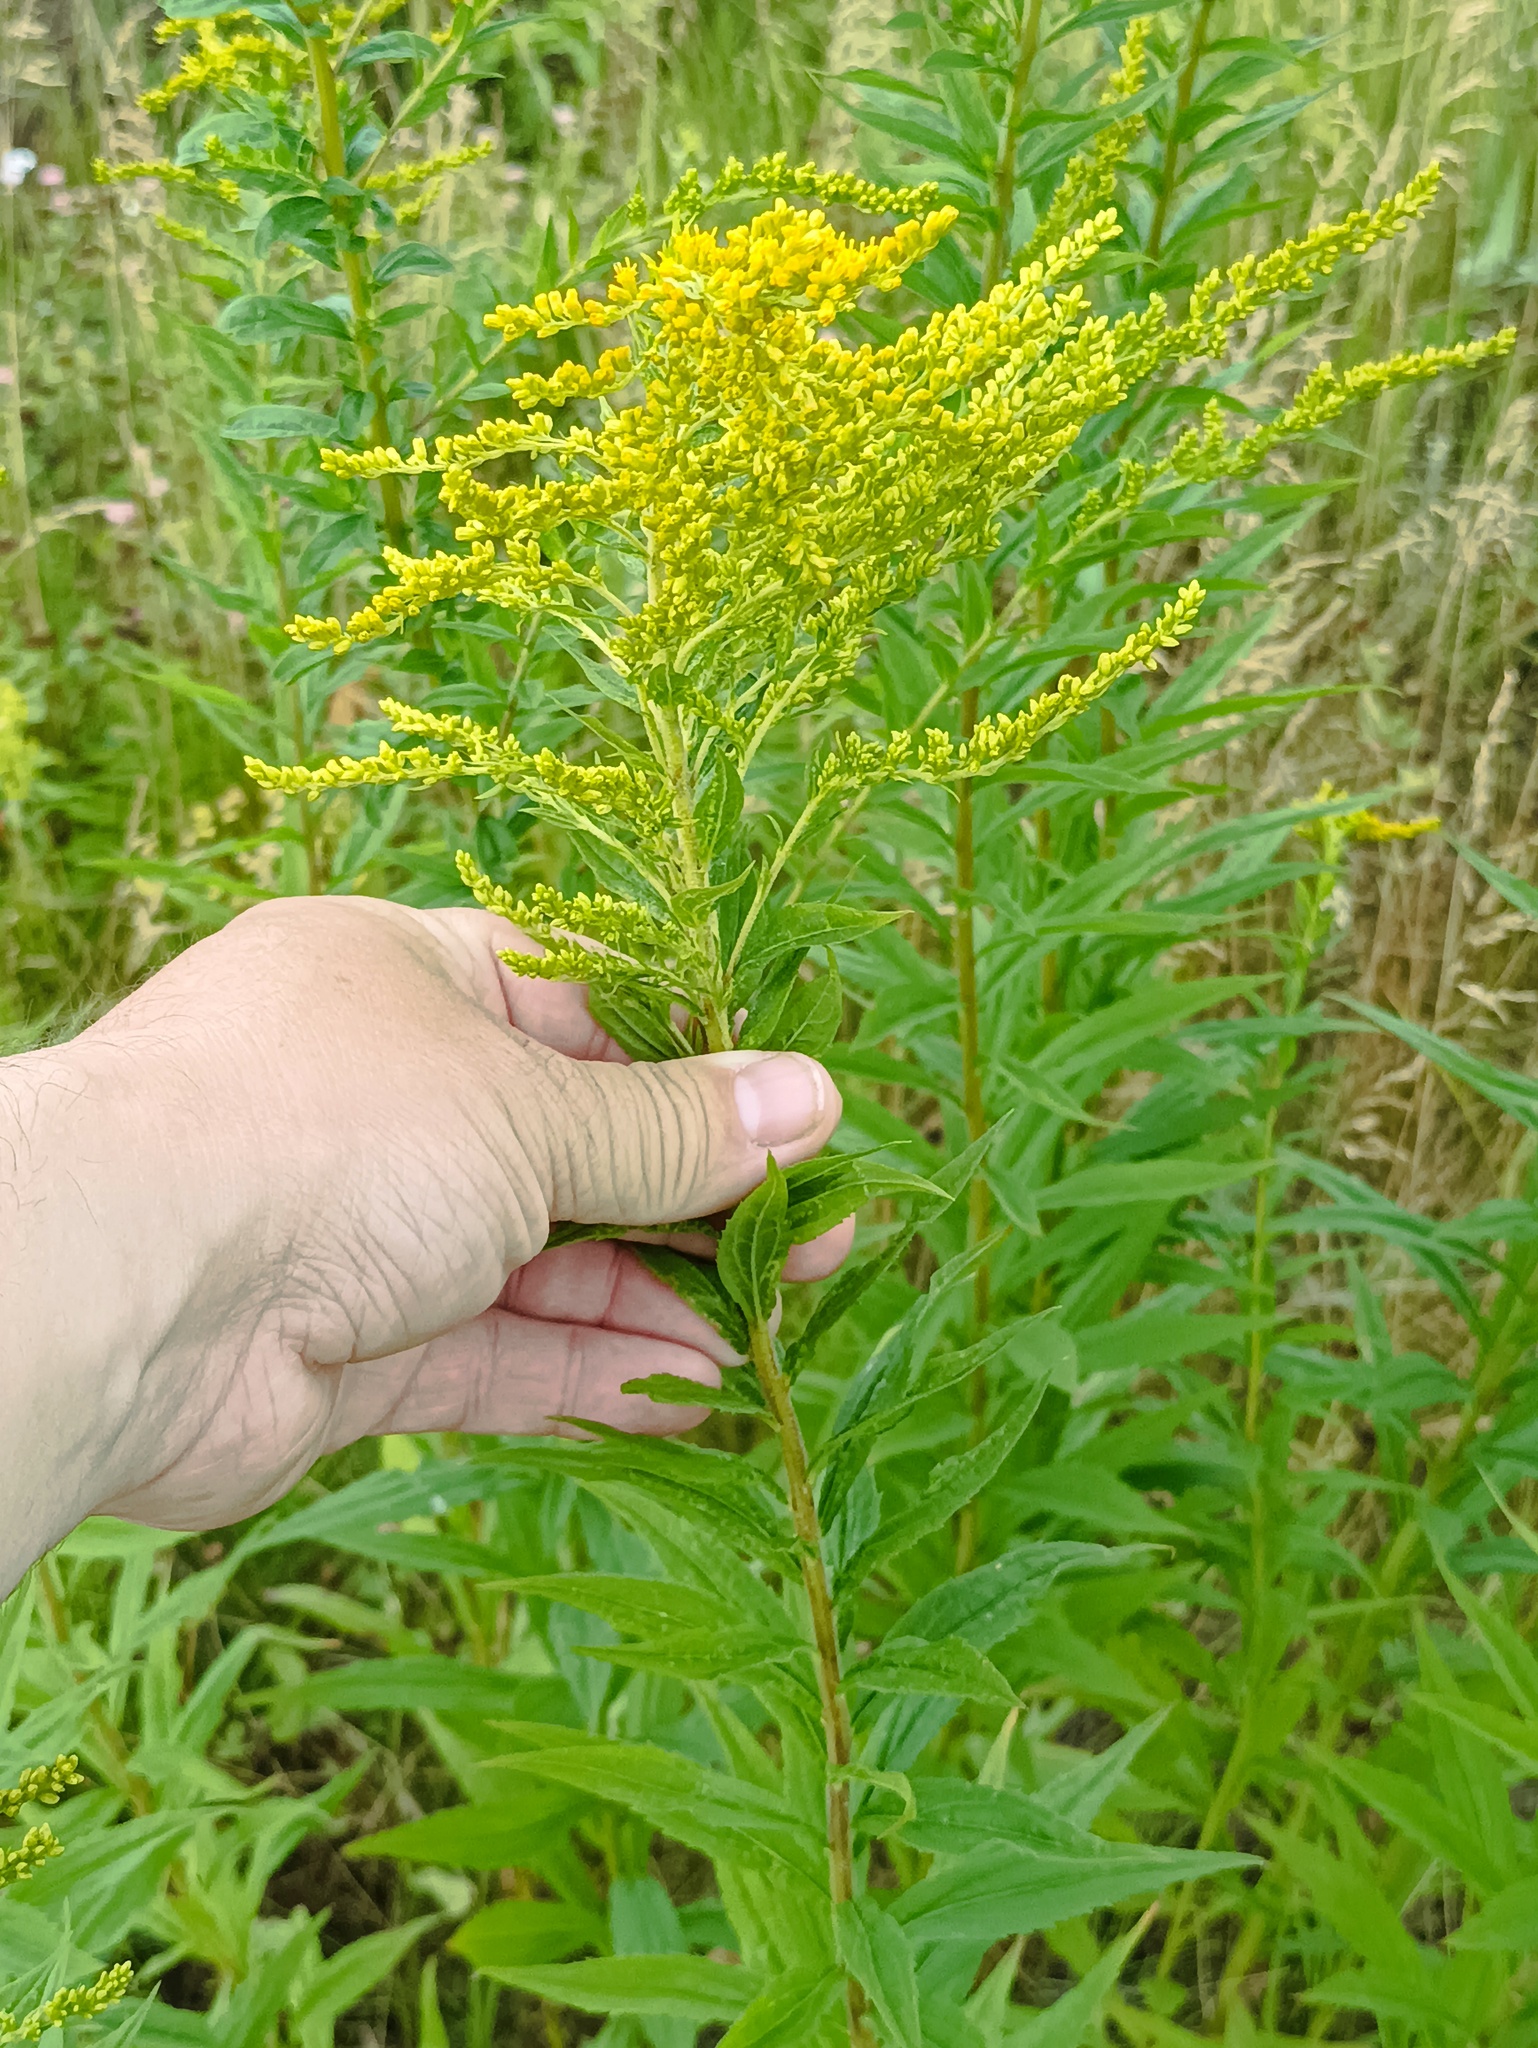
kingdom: Plantae
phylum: Tracheophyta
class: Magnoliopsida
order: Asterales
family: Asteraceae
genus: Solidago
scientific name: Solidago canadensis
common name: Canada goldenrod
